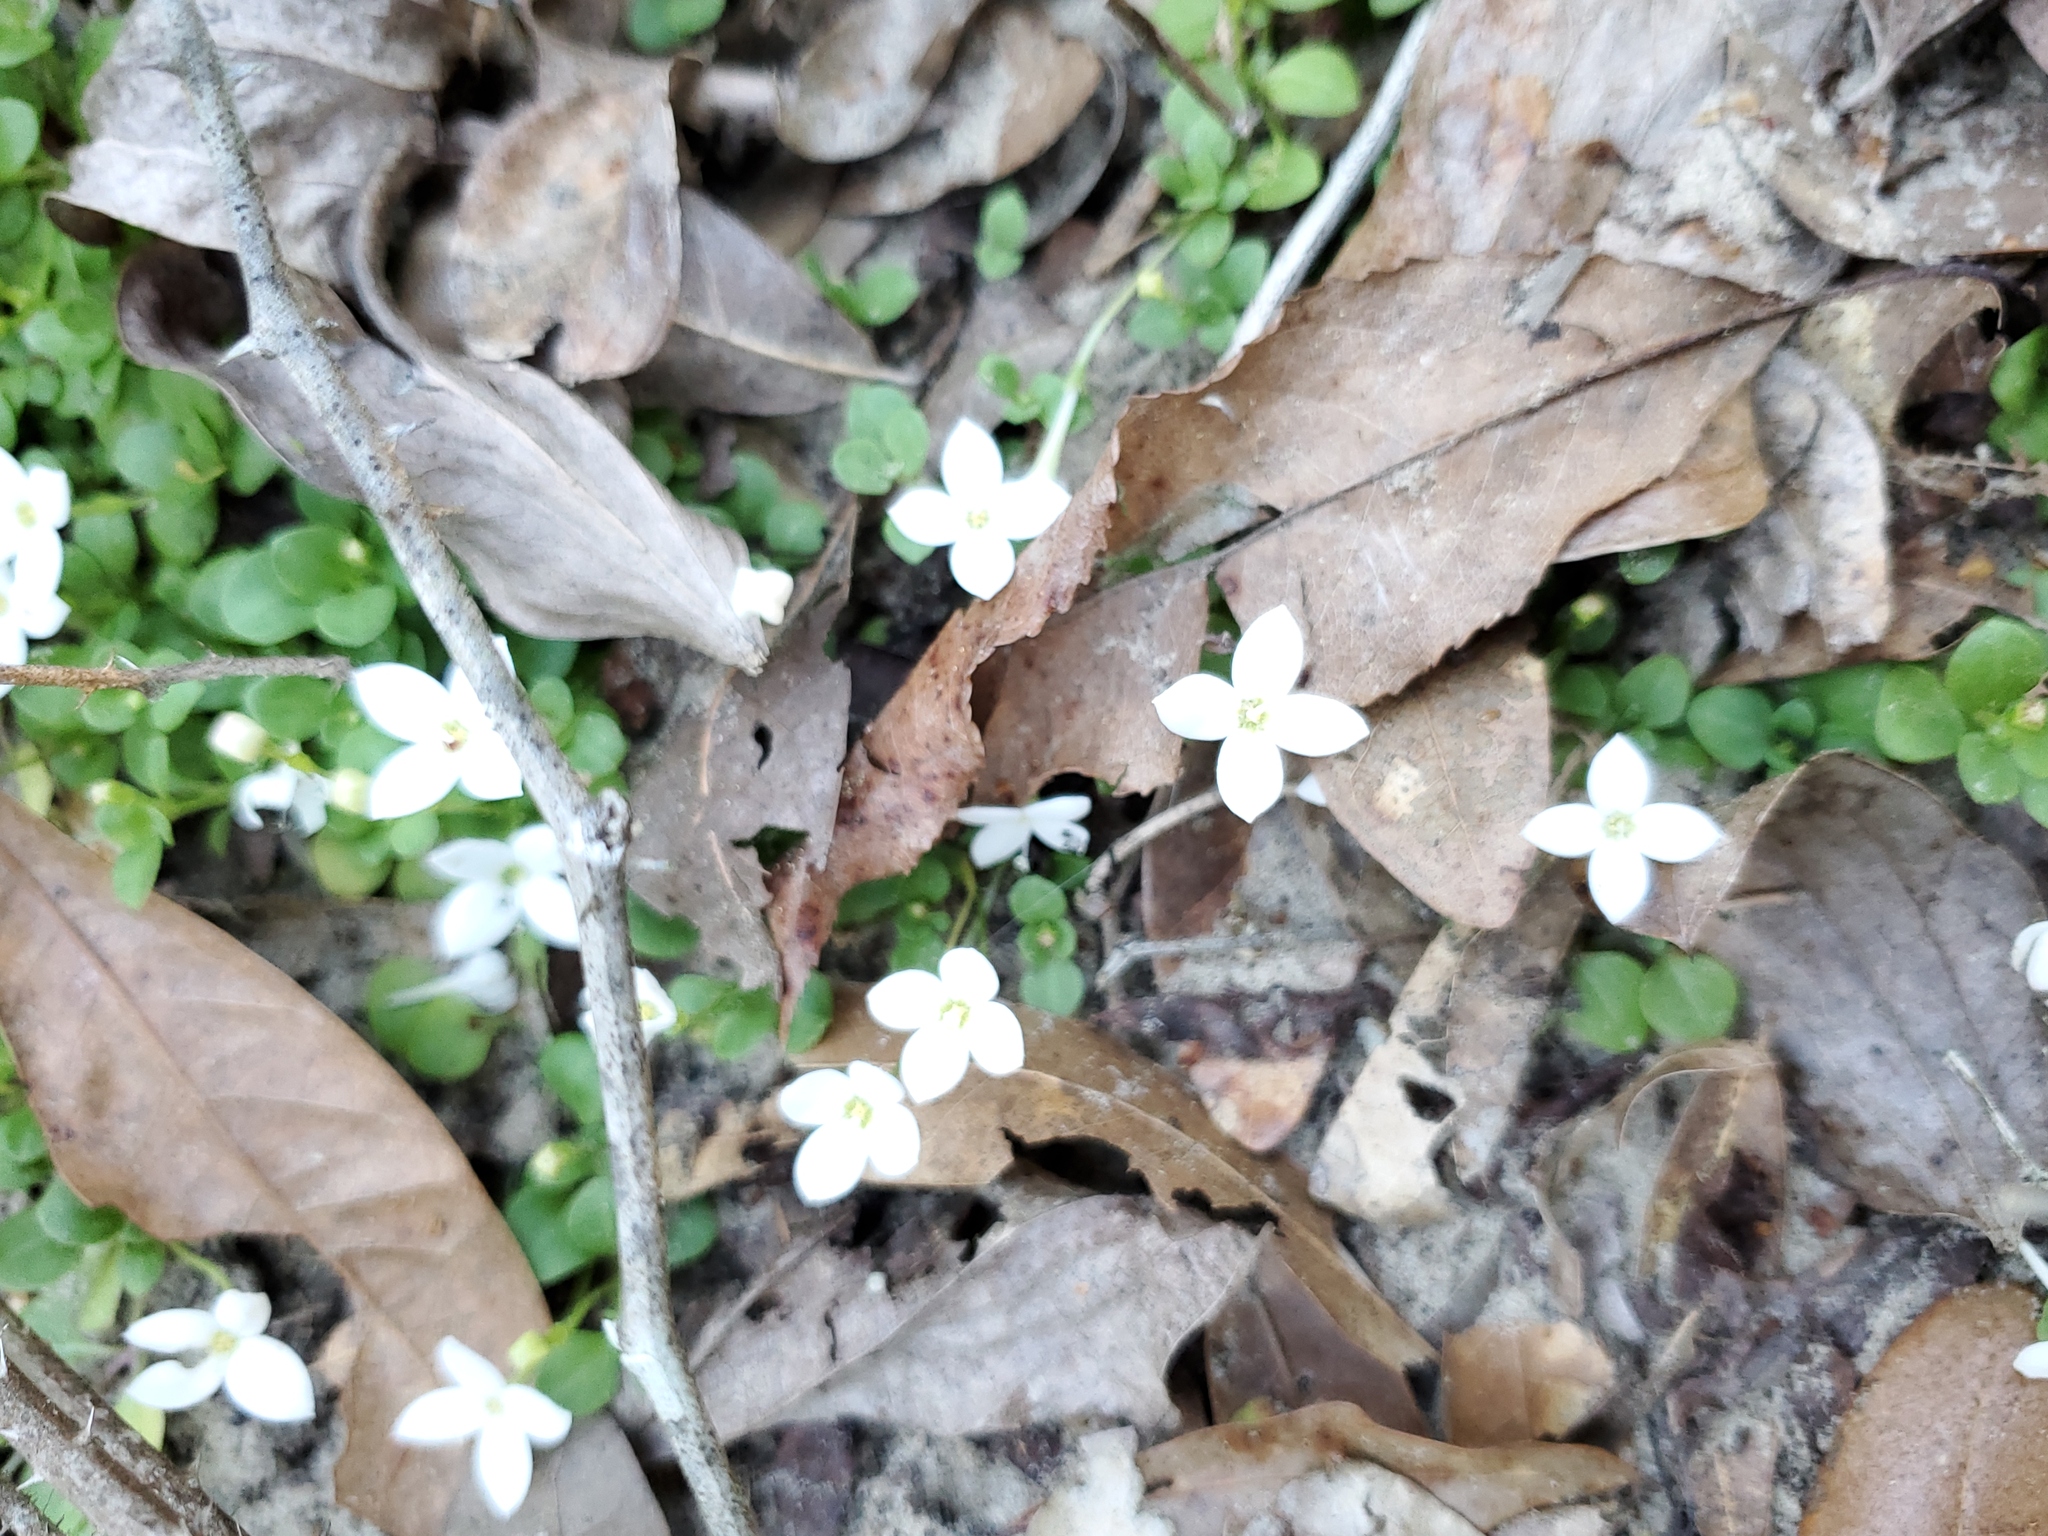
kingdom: Plantae
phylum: Tracheophyta
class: Magnoliopsida
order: Gentianales
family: Rubiaceae
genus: Houstonia
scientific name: Houstonia procumbens
